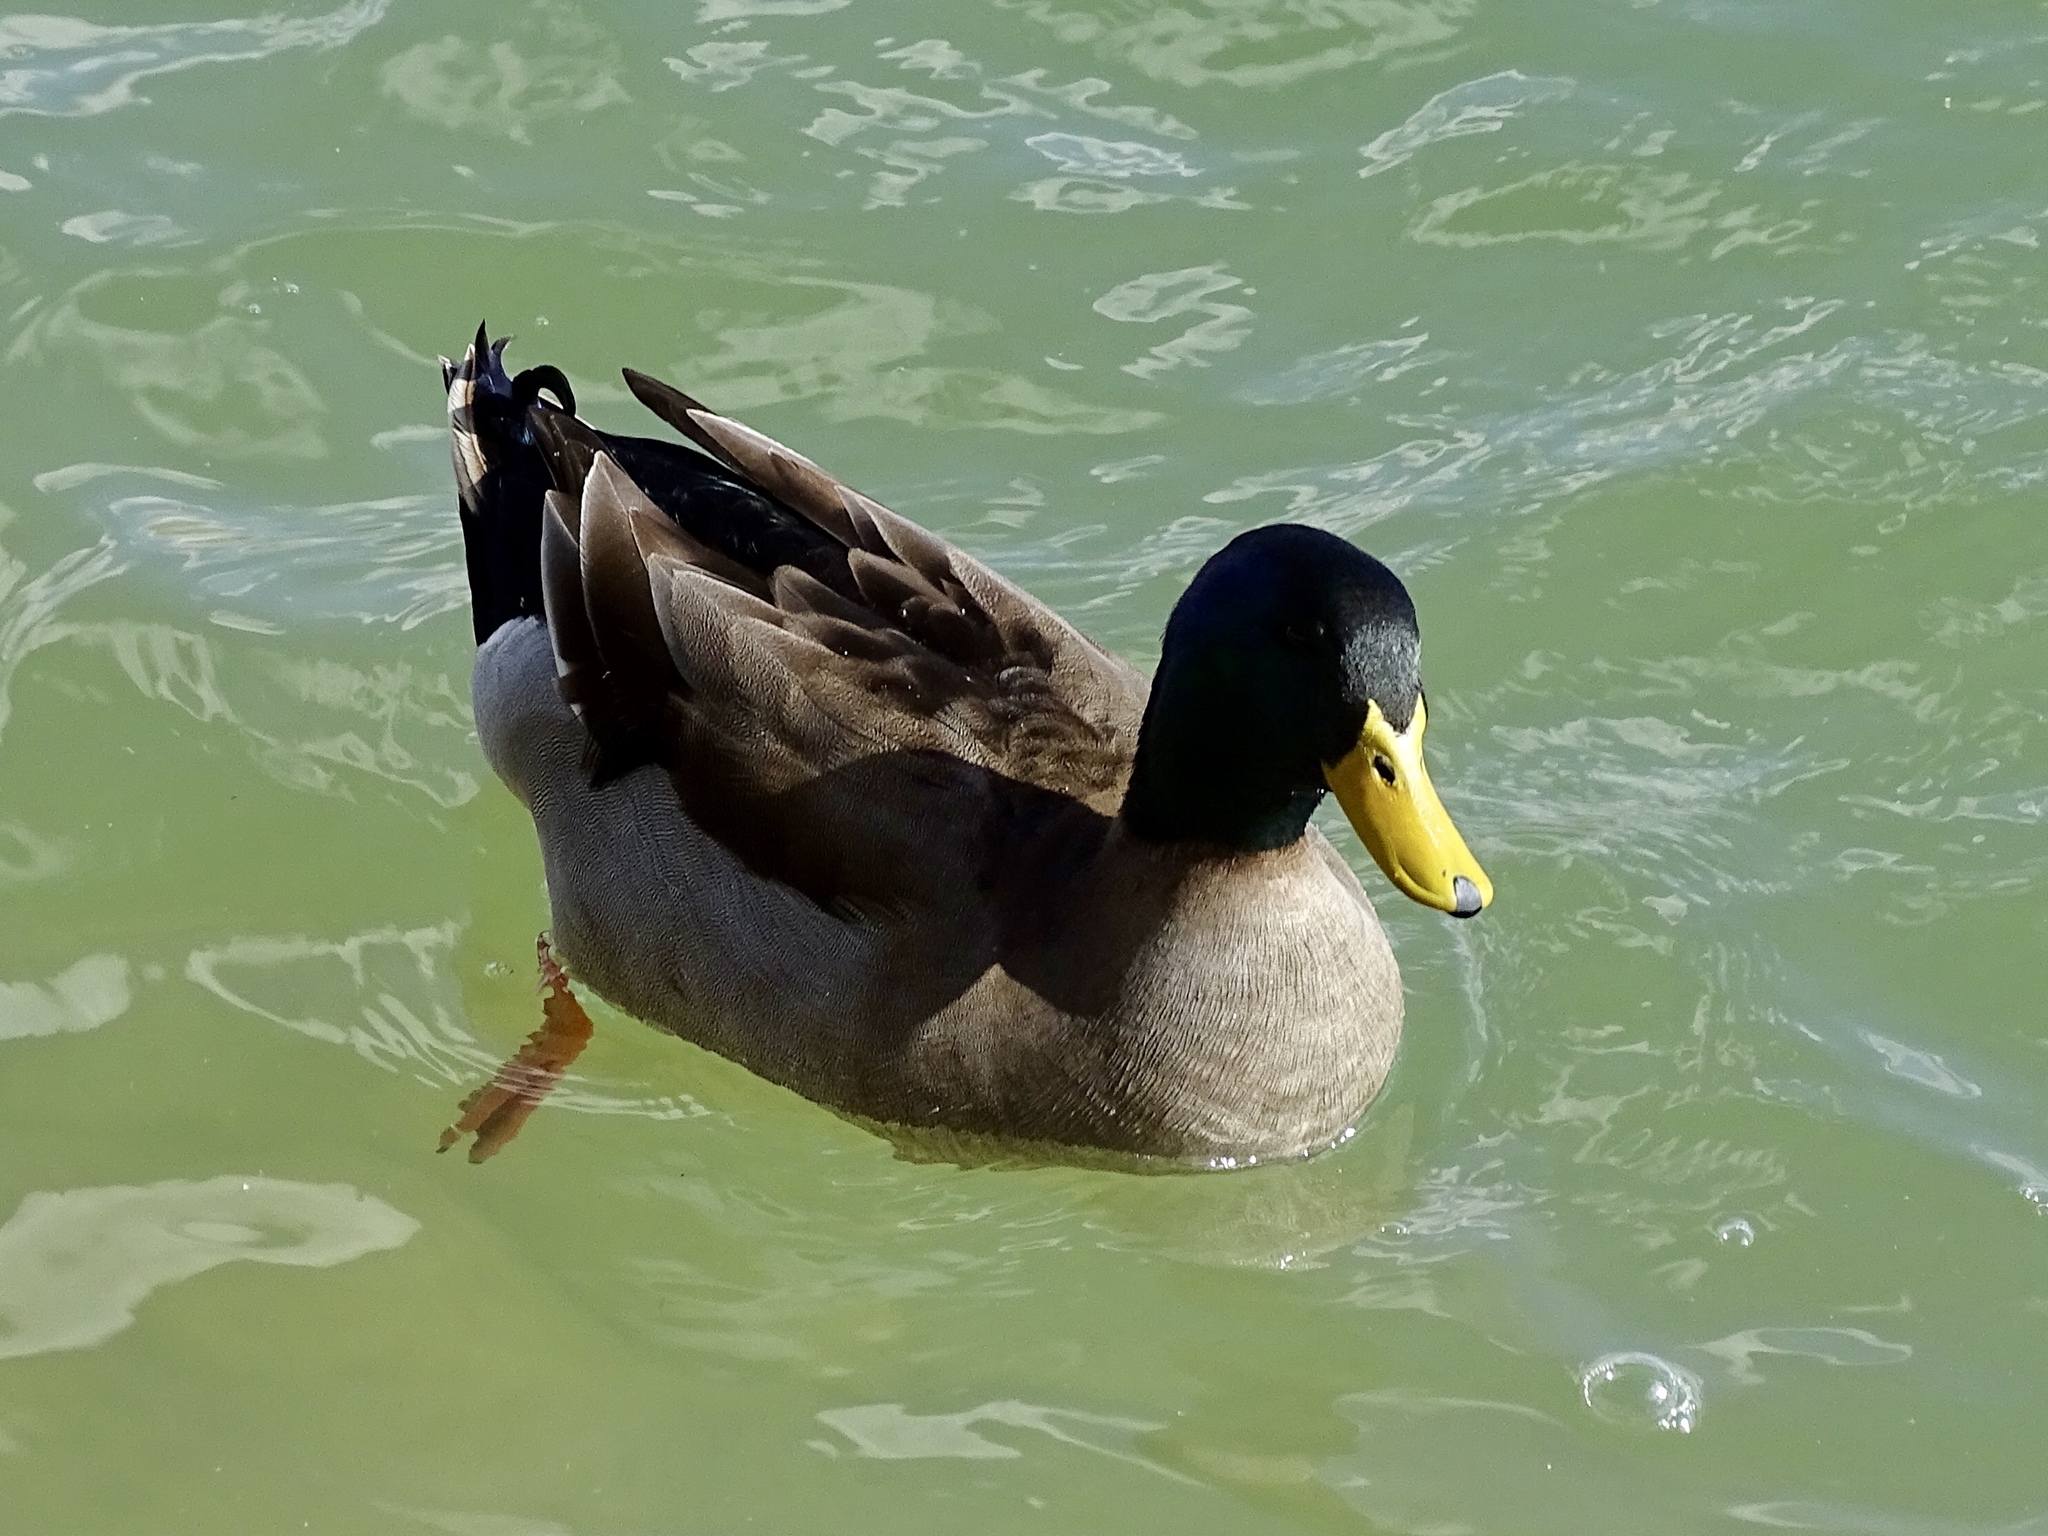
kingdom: Animalia
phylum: Chordata
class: Aves
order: Anseriformes
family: Anatidae
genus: Anas
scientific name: Anas platyrhynchos
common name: Mallard
